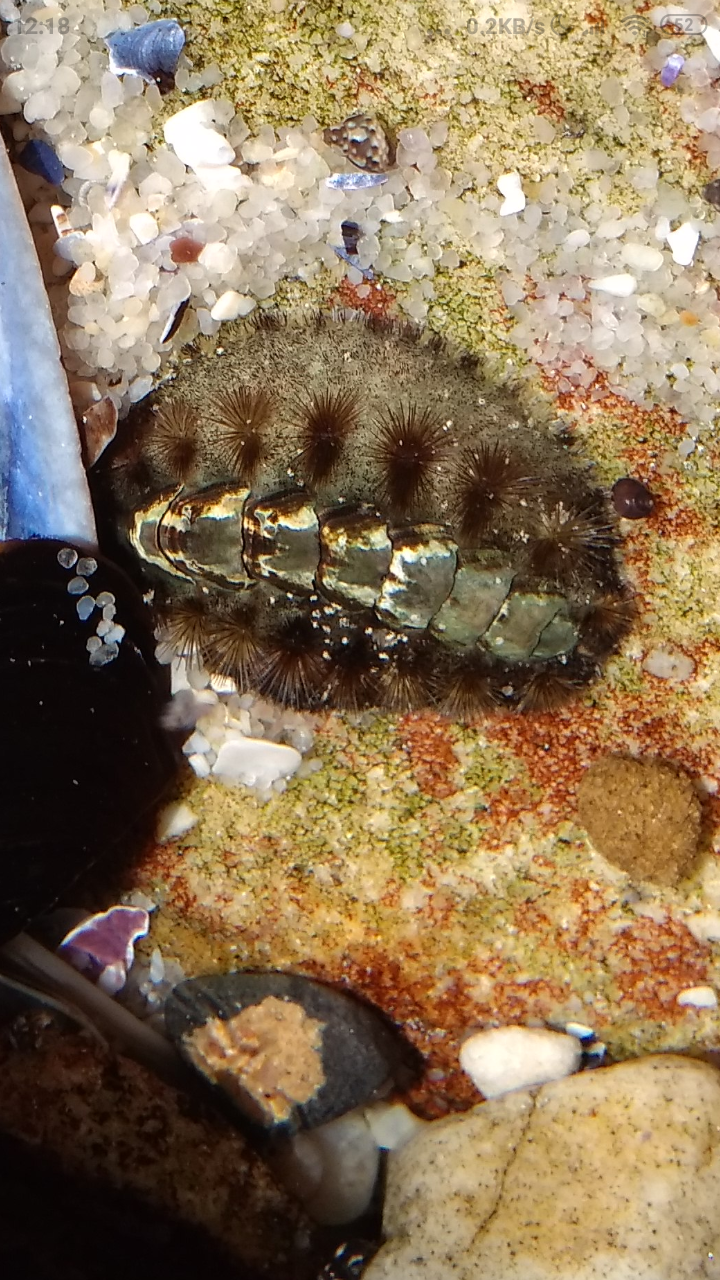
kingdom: Animalia
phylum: Mollusca
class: Polyplacophora
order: Chitonida
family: Acanthochitonidae
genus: Acanthochitona
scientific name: Acanthochitona garnoti
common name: Spiny chiton
